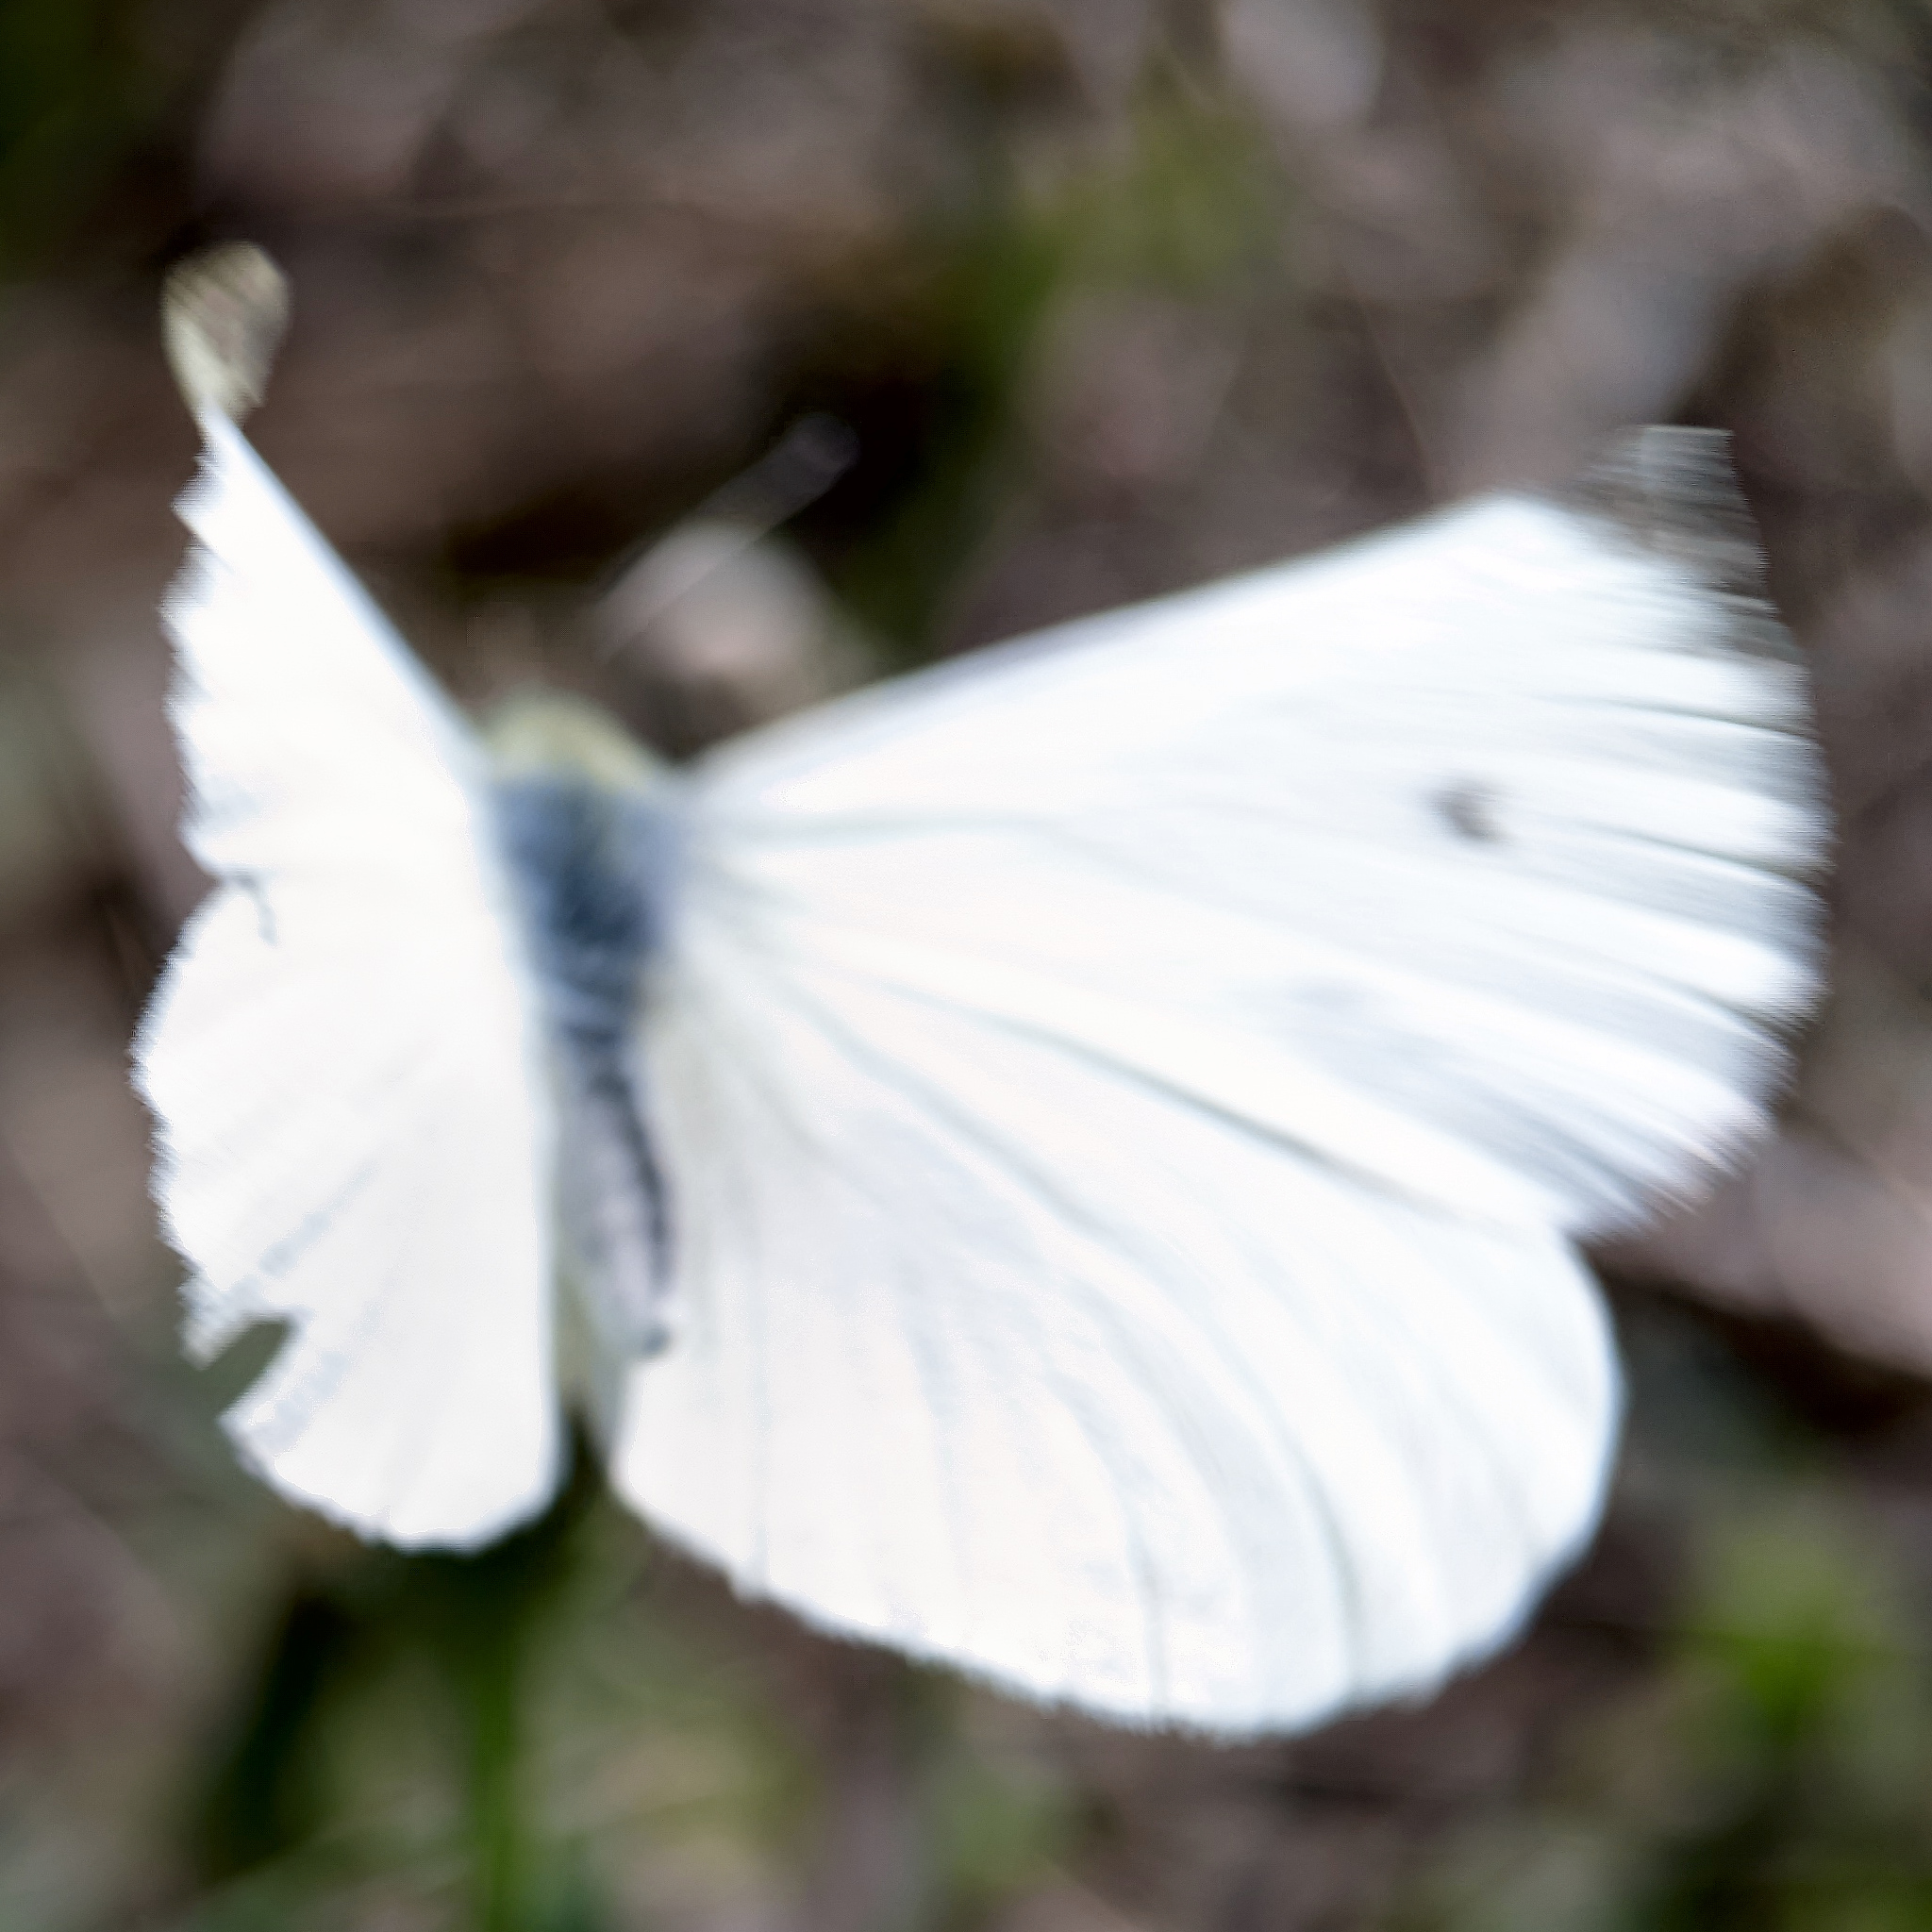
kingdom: Animalia
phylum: Arthropoda
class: Insecta
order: Lepidoptera
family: Pieridae
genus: Pieris
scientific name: Pieris rapae
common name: Small white
